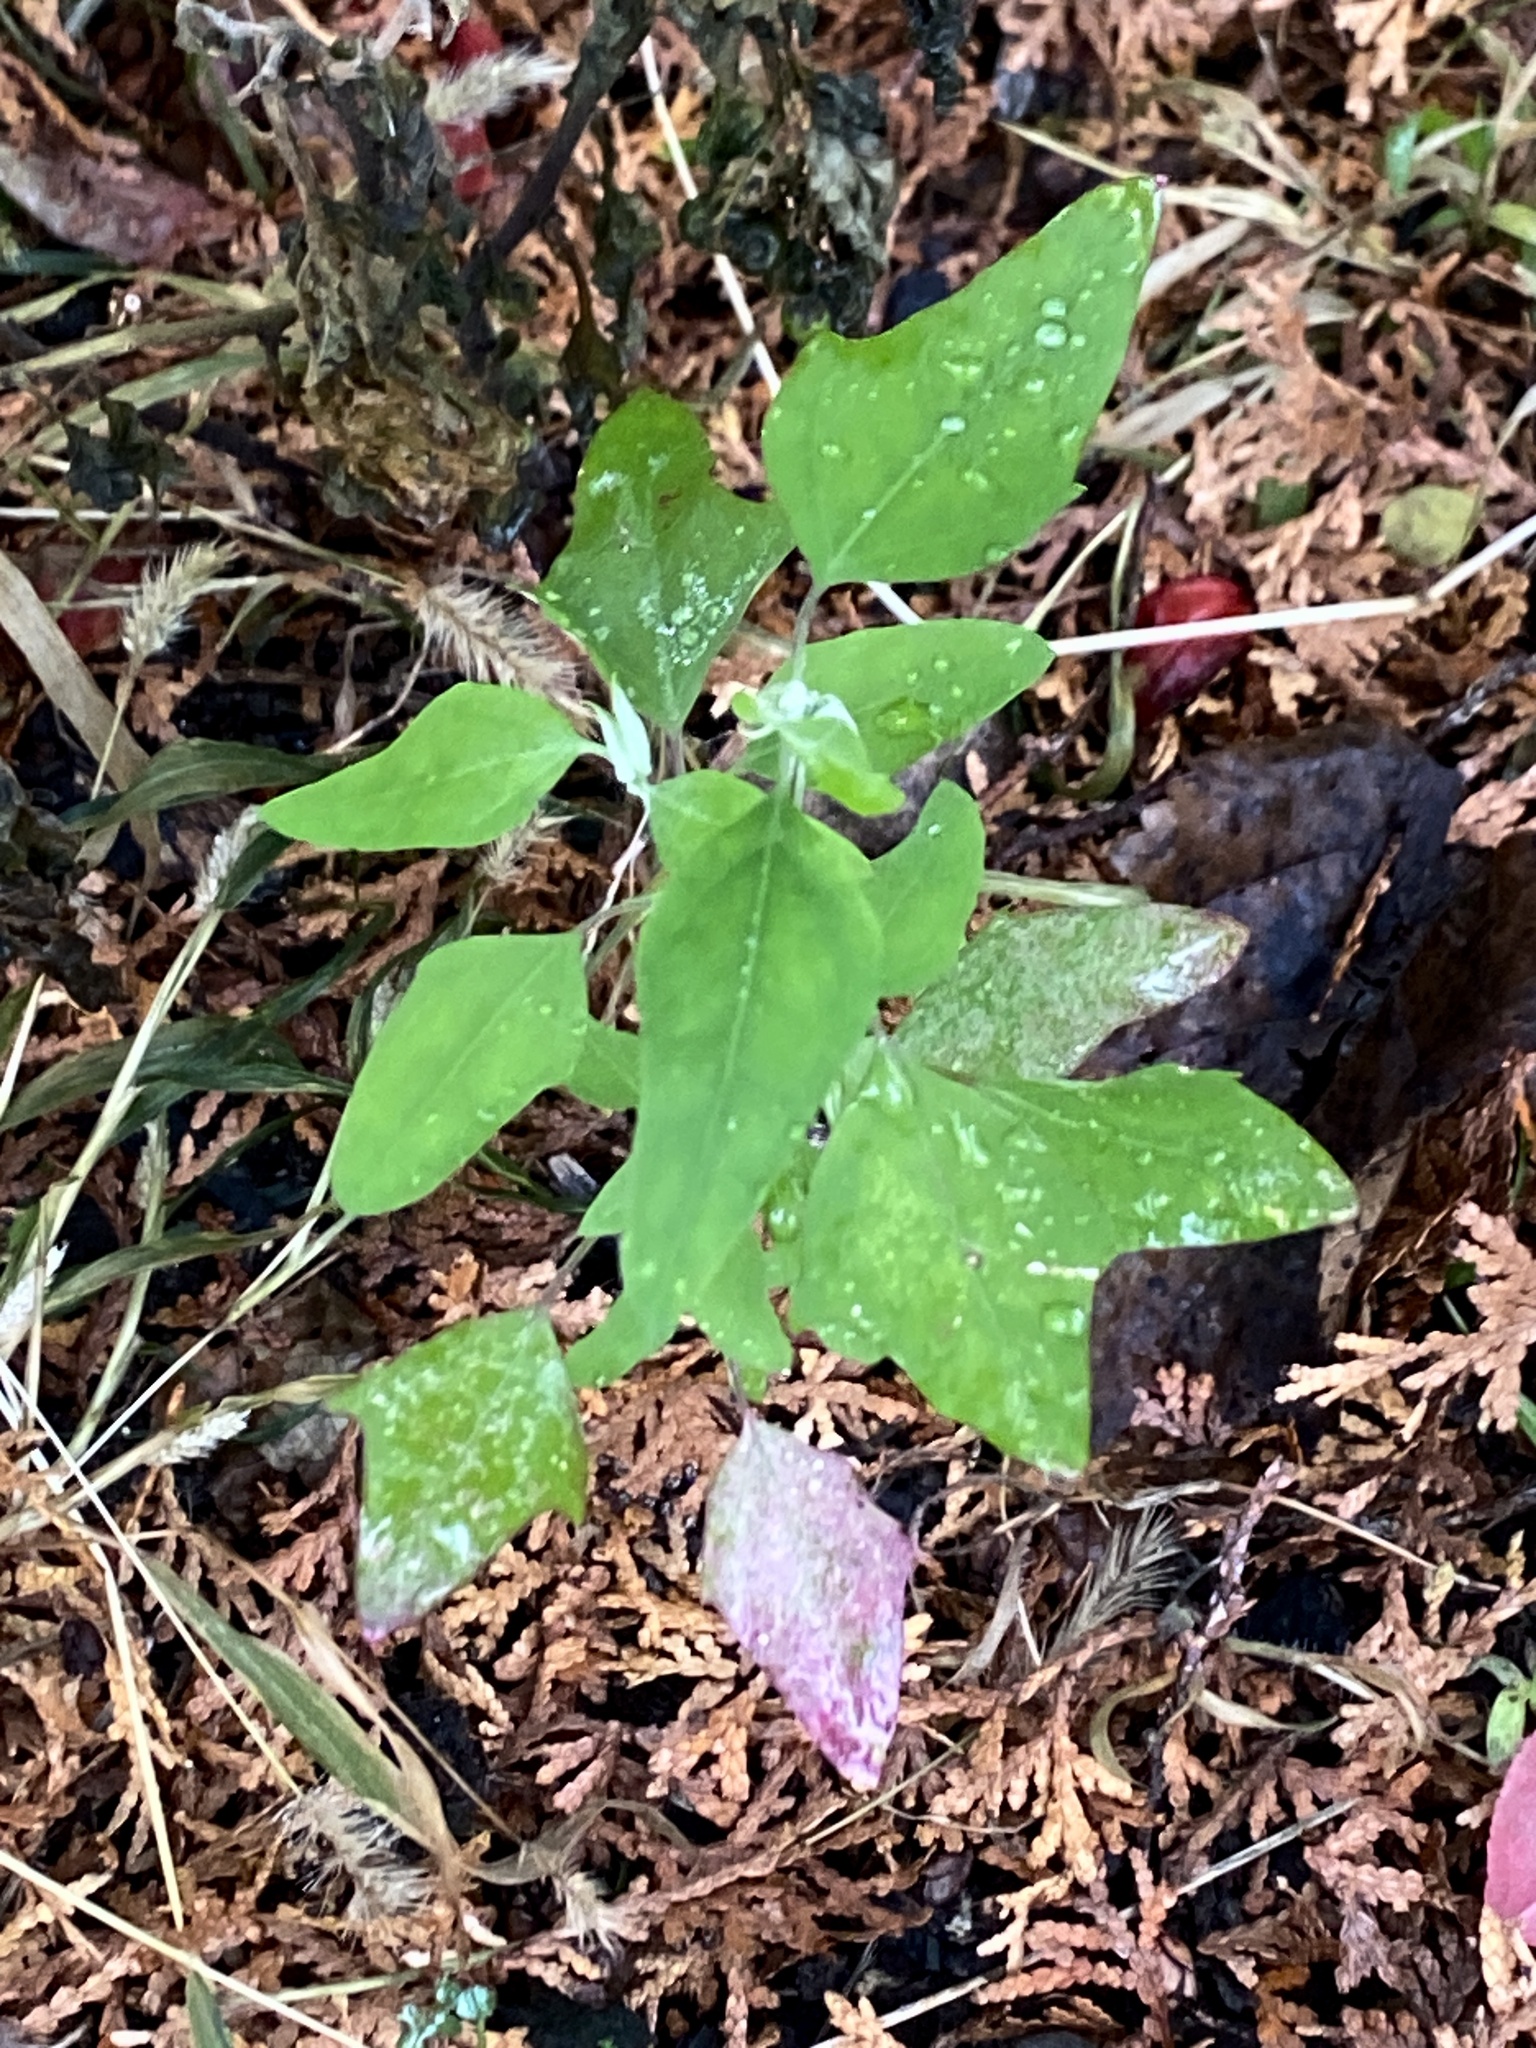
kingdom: Plantae
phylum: Tracheophyta
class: Magnoliopsida
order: Caryophyllales
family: Amaranthaceae
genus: Chenopodium
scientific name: Chenopodium album
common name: Fat-hen
